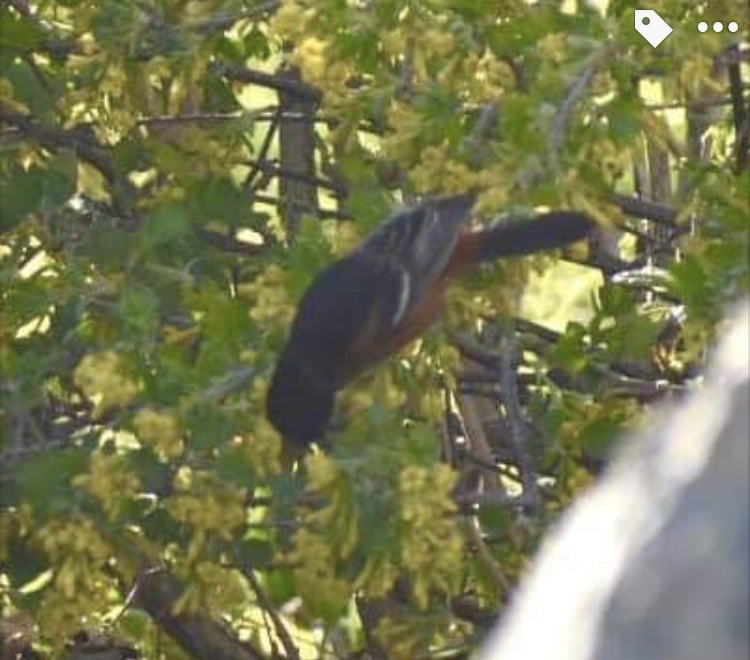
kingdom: Animalia
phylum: Chordata
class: Aves
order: Passeriformes
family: Icteridae
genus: Icterus
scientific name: Icterus spurius
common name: Orchard oriole
